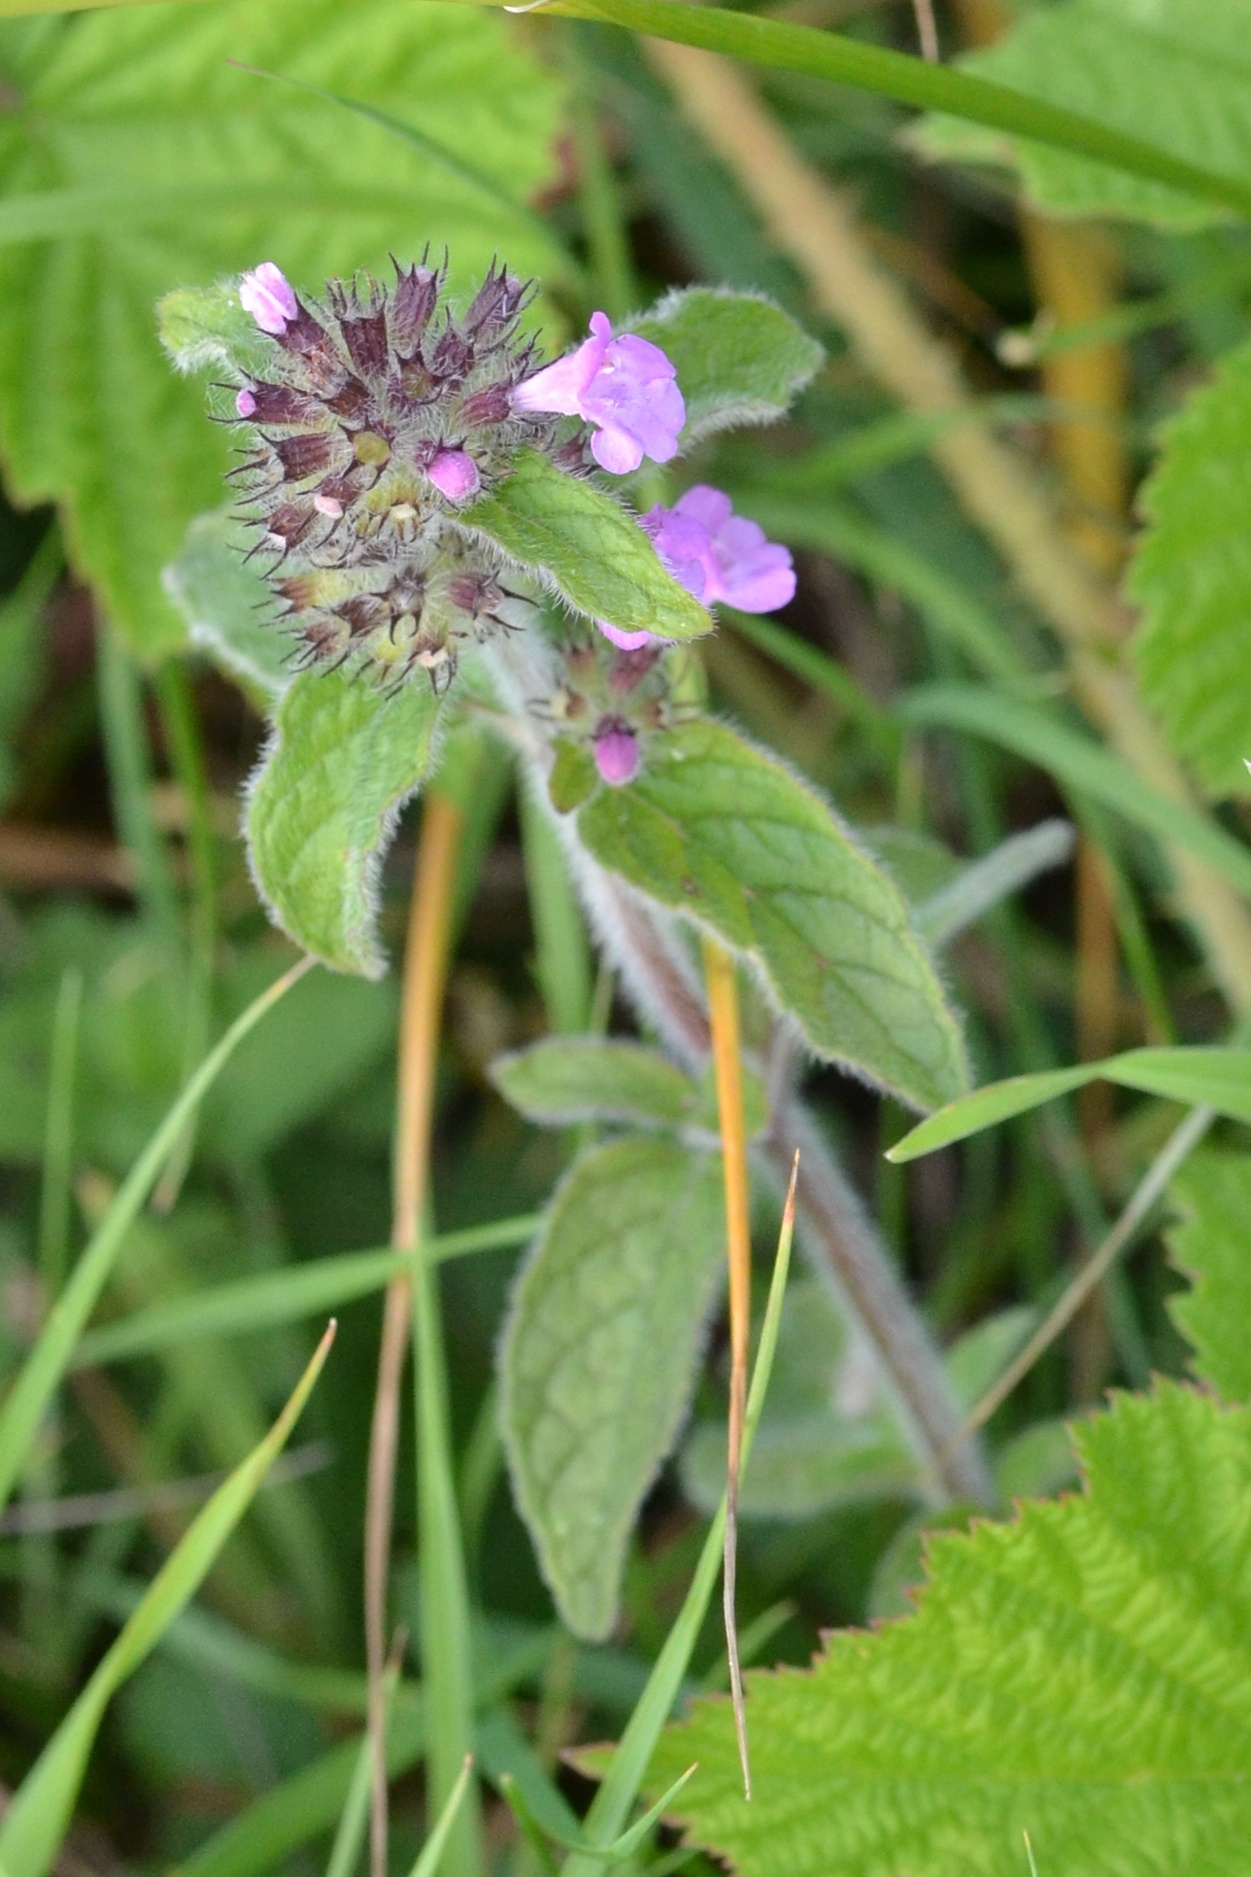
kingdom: Plantae
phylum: Tracheophyta
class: Magnoliopsida
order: Lamiales
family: Lamiaceae
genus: Clinopodium
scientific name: Clinopodium vulgare
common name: Wild basil
